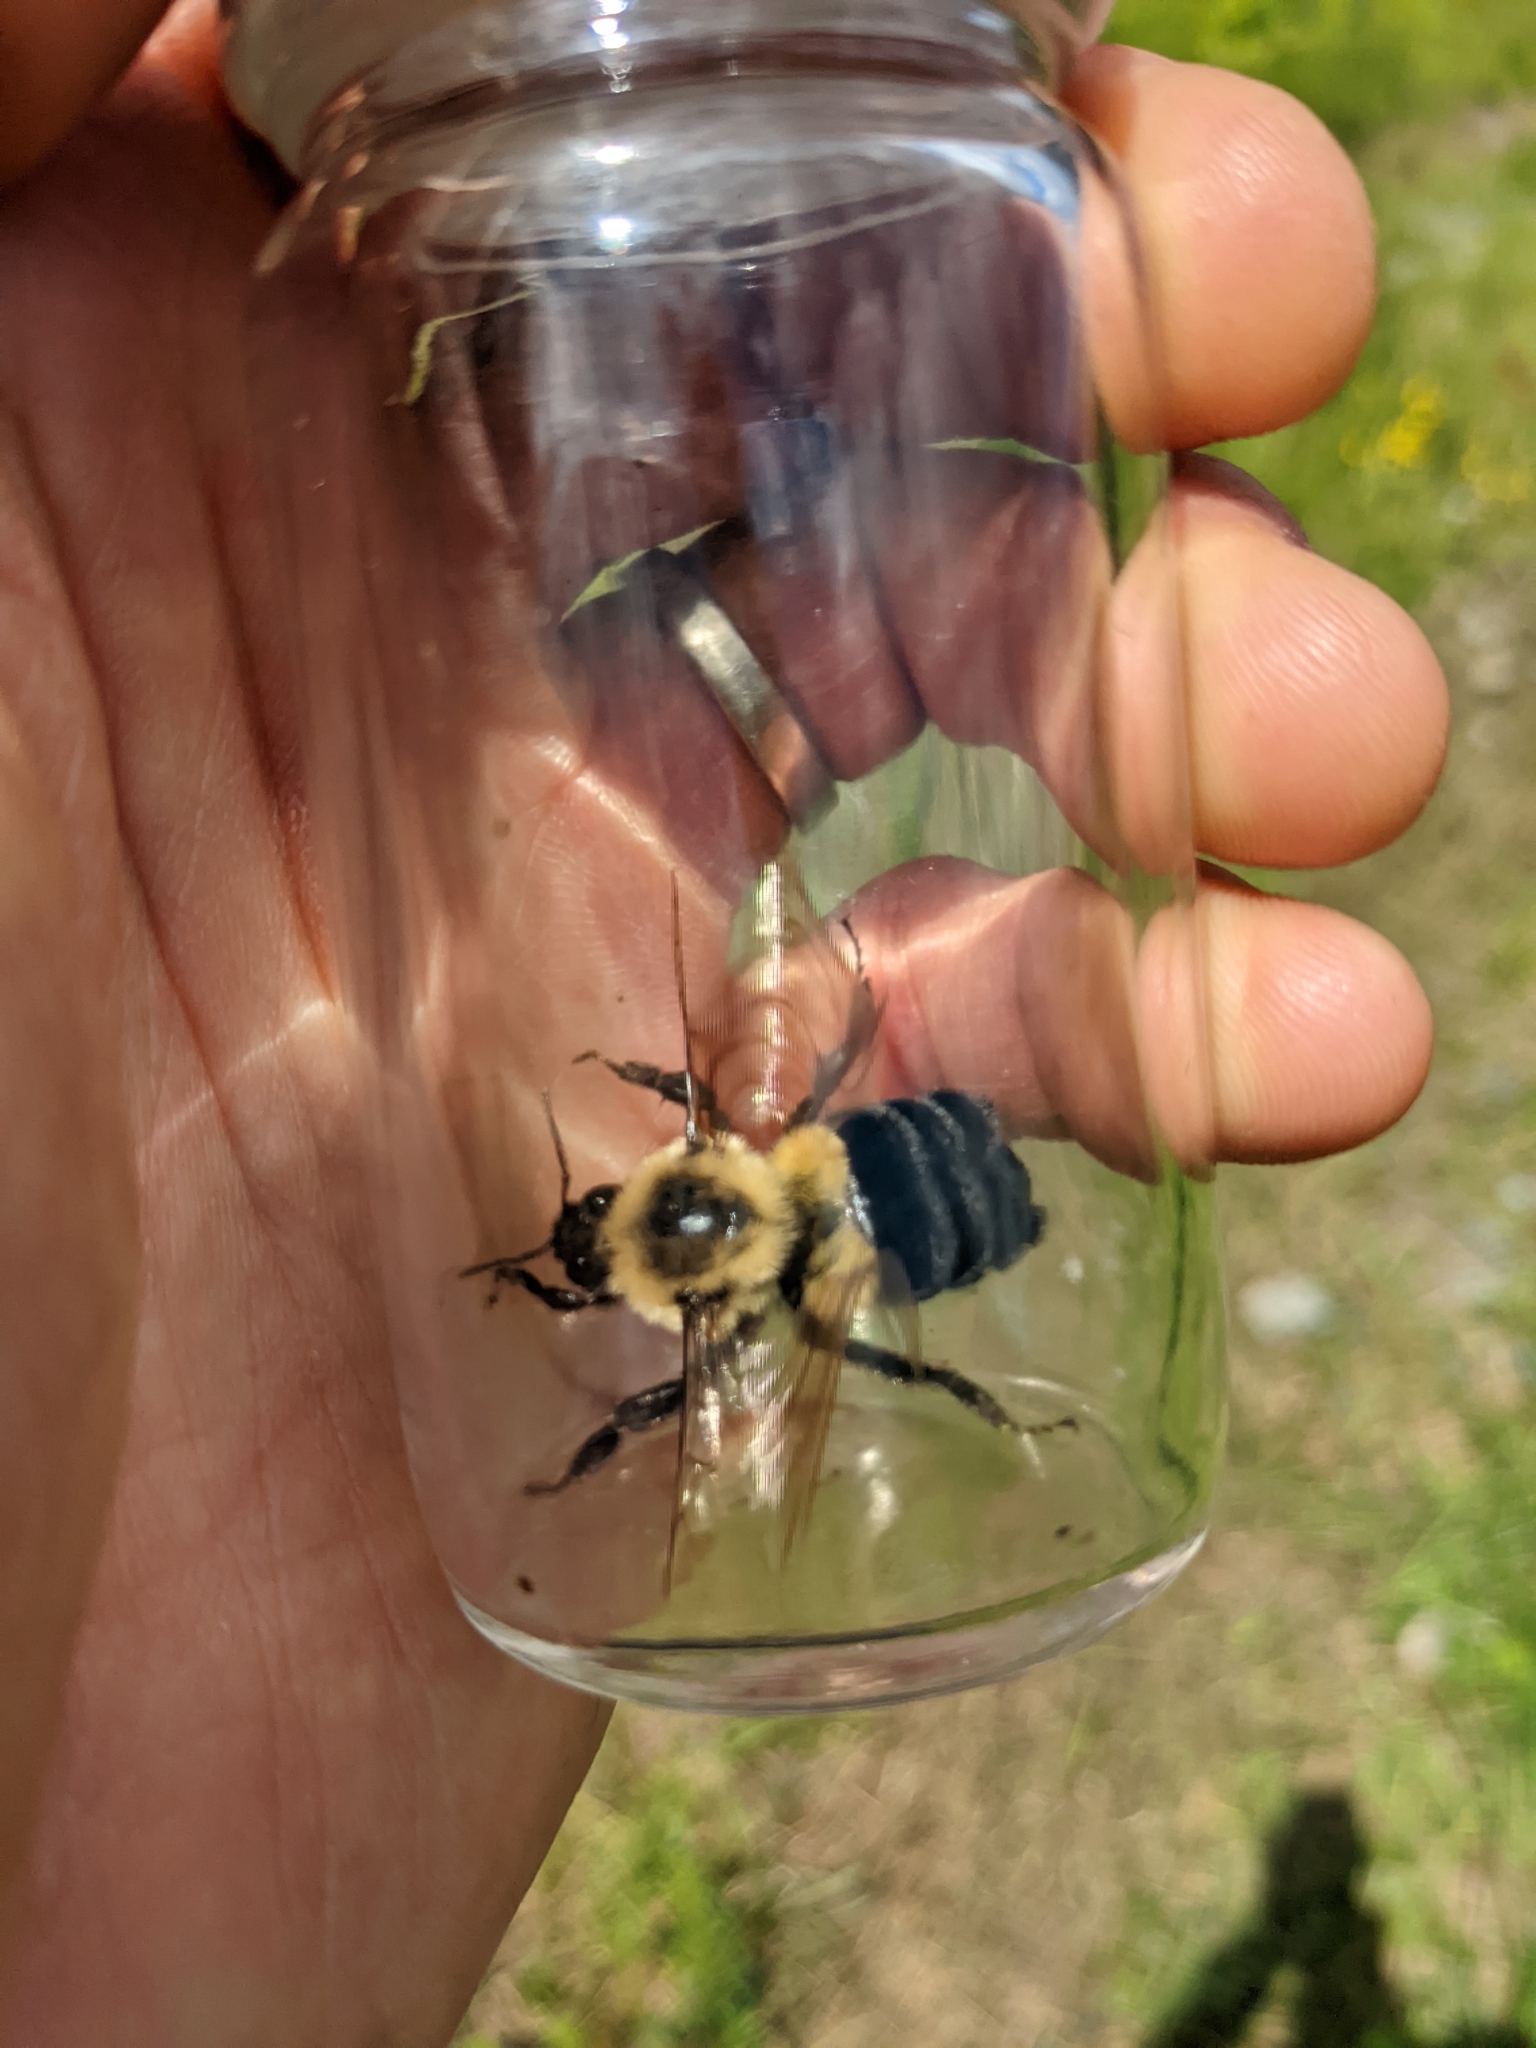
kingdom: Animalia
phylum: Arthropoda
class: Insecta
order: Hymenoptera
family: Apidae
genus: Bombus
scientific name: Bombus impatiens
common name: Common eastern bumble bee
